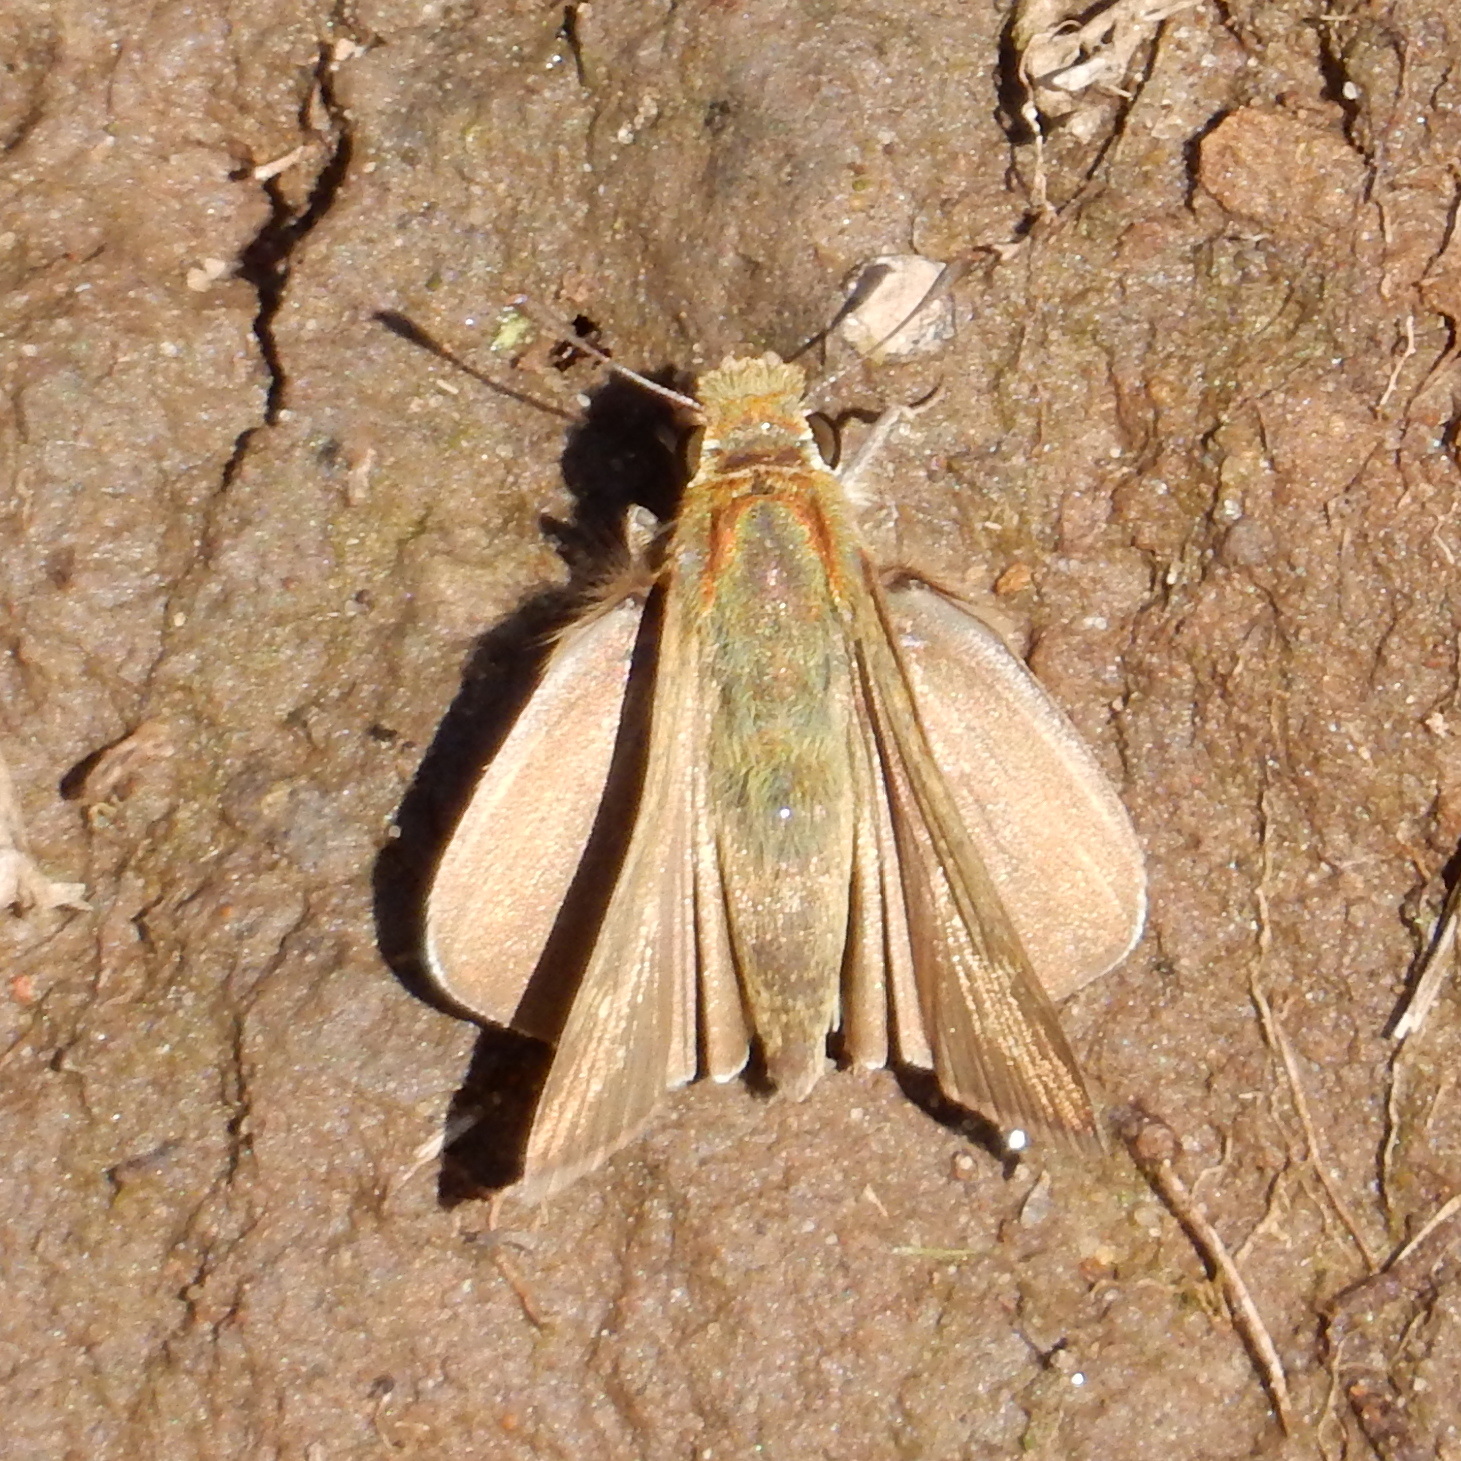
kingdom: Animalia
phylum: Arthropoda
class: Insecta
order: Lepidoptera
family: Hesperiidae
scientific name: Hesperiidae
